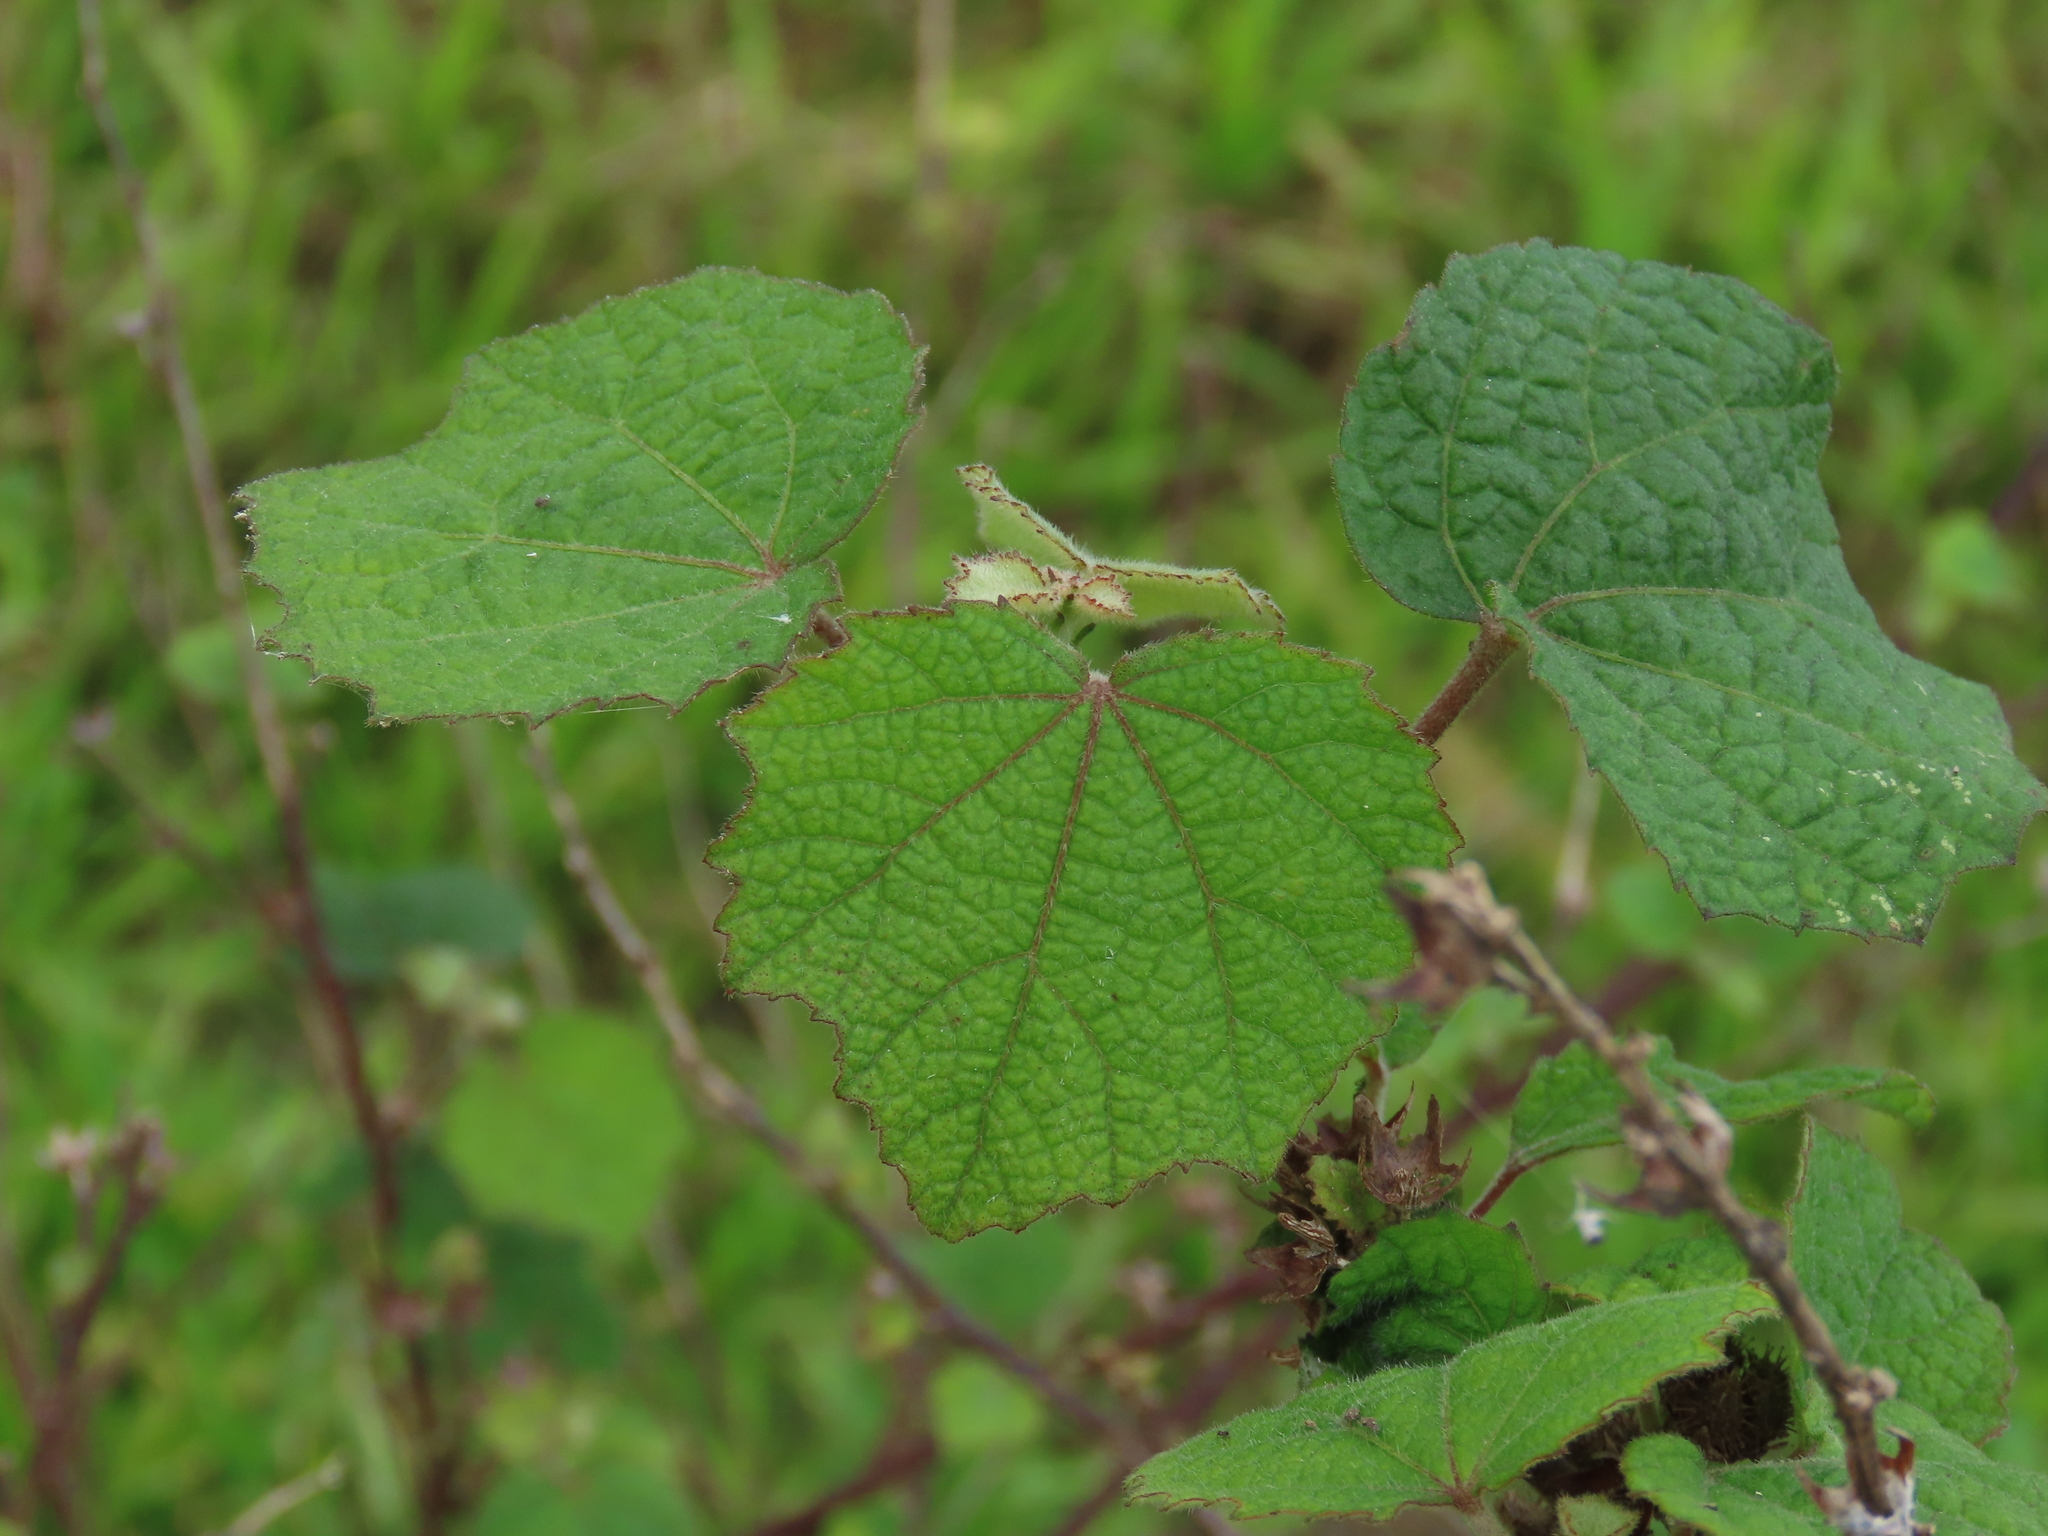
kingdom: Plantae
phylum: Tracheophyta
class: Magnoliopsida
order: Malvales
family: Malvaceae
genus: Urena
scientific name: Urena lobata
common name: Caesarweed
